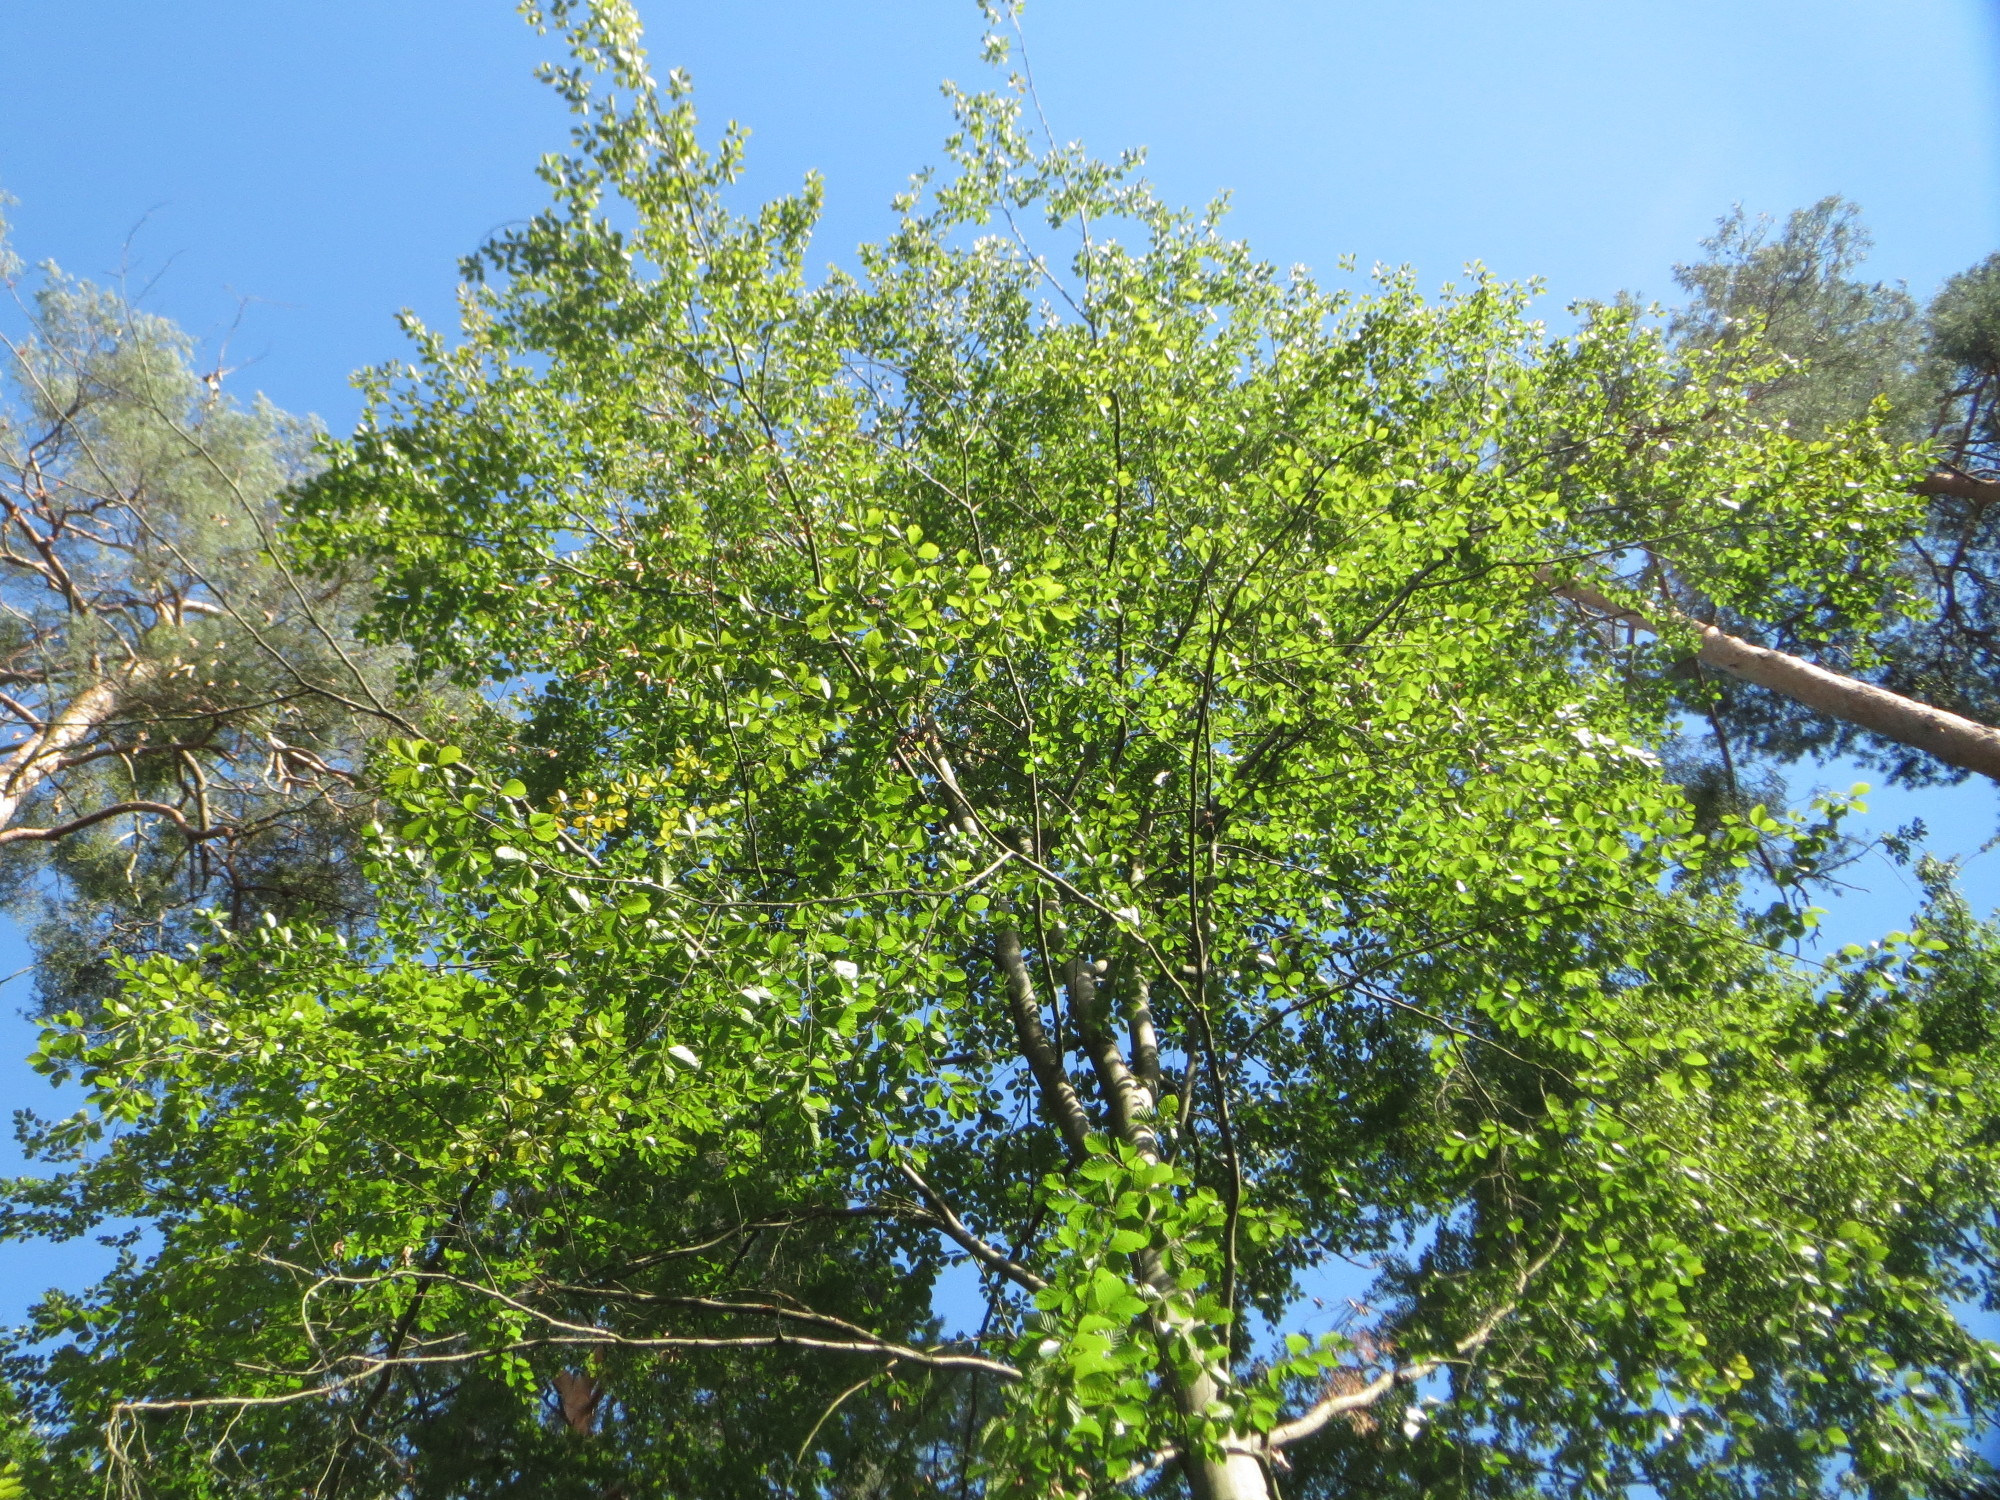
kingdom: Plantae
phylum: Tracheophyta
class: Magnoliopsida
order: Fagales
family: Fagaceae
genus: Fagus
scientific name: Fagus sylvatica
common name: Beech
